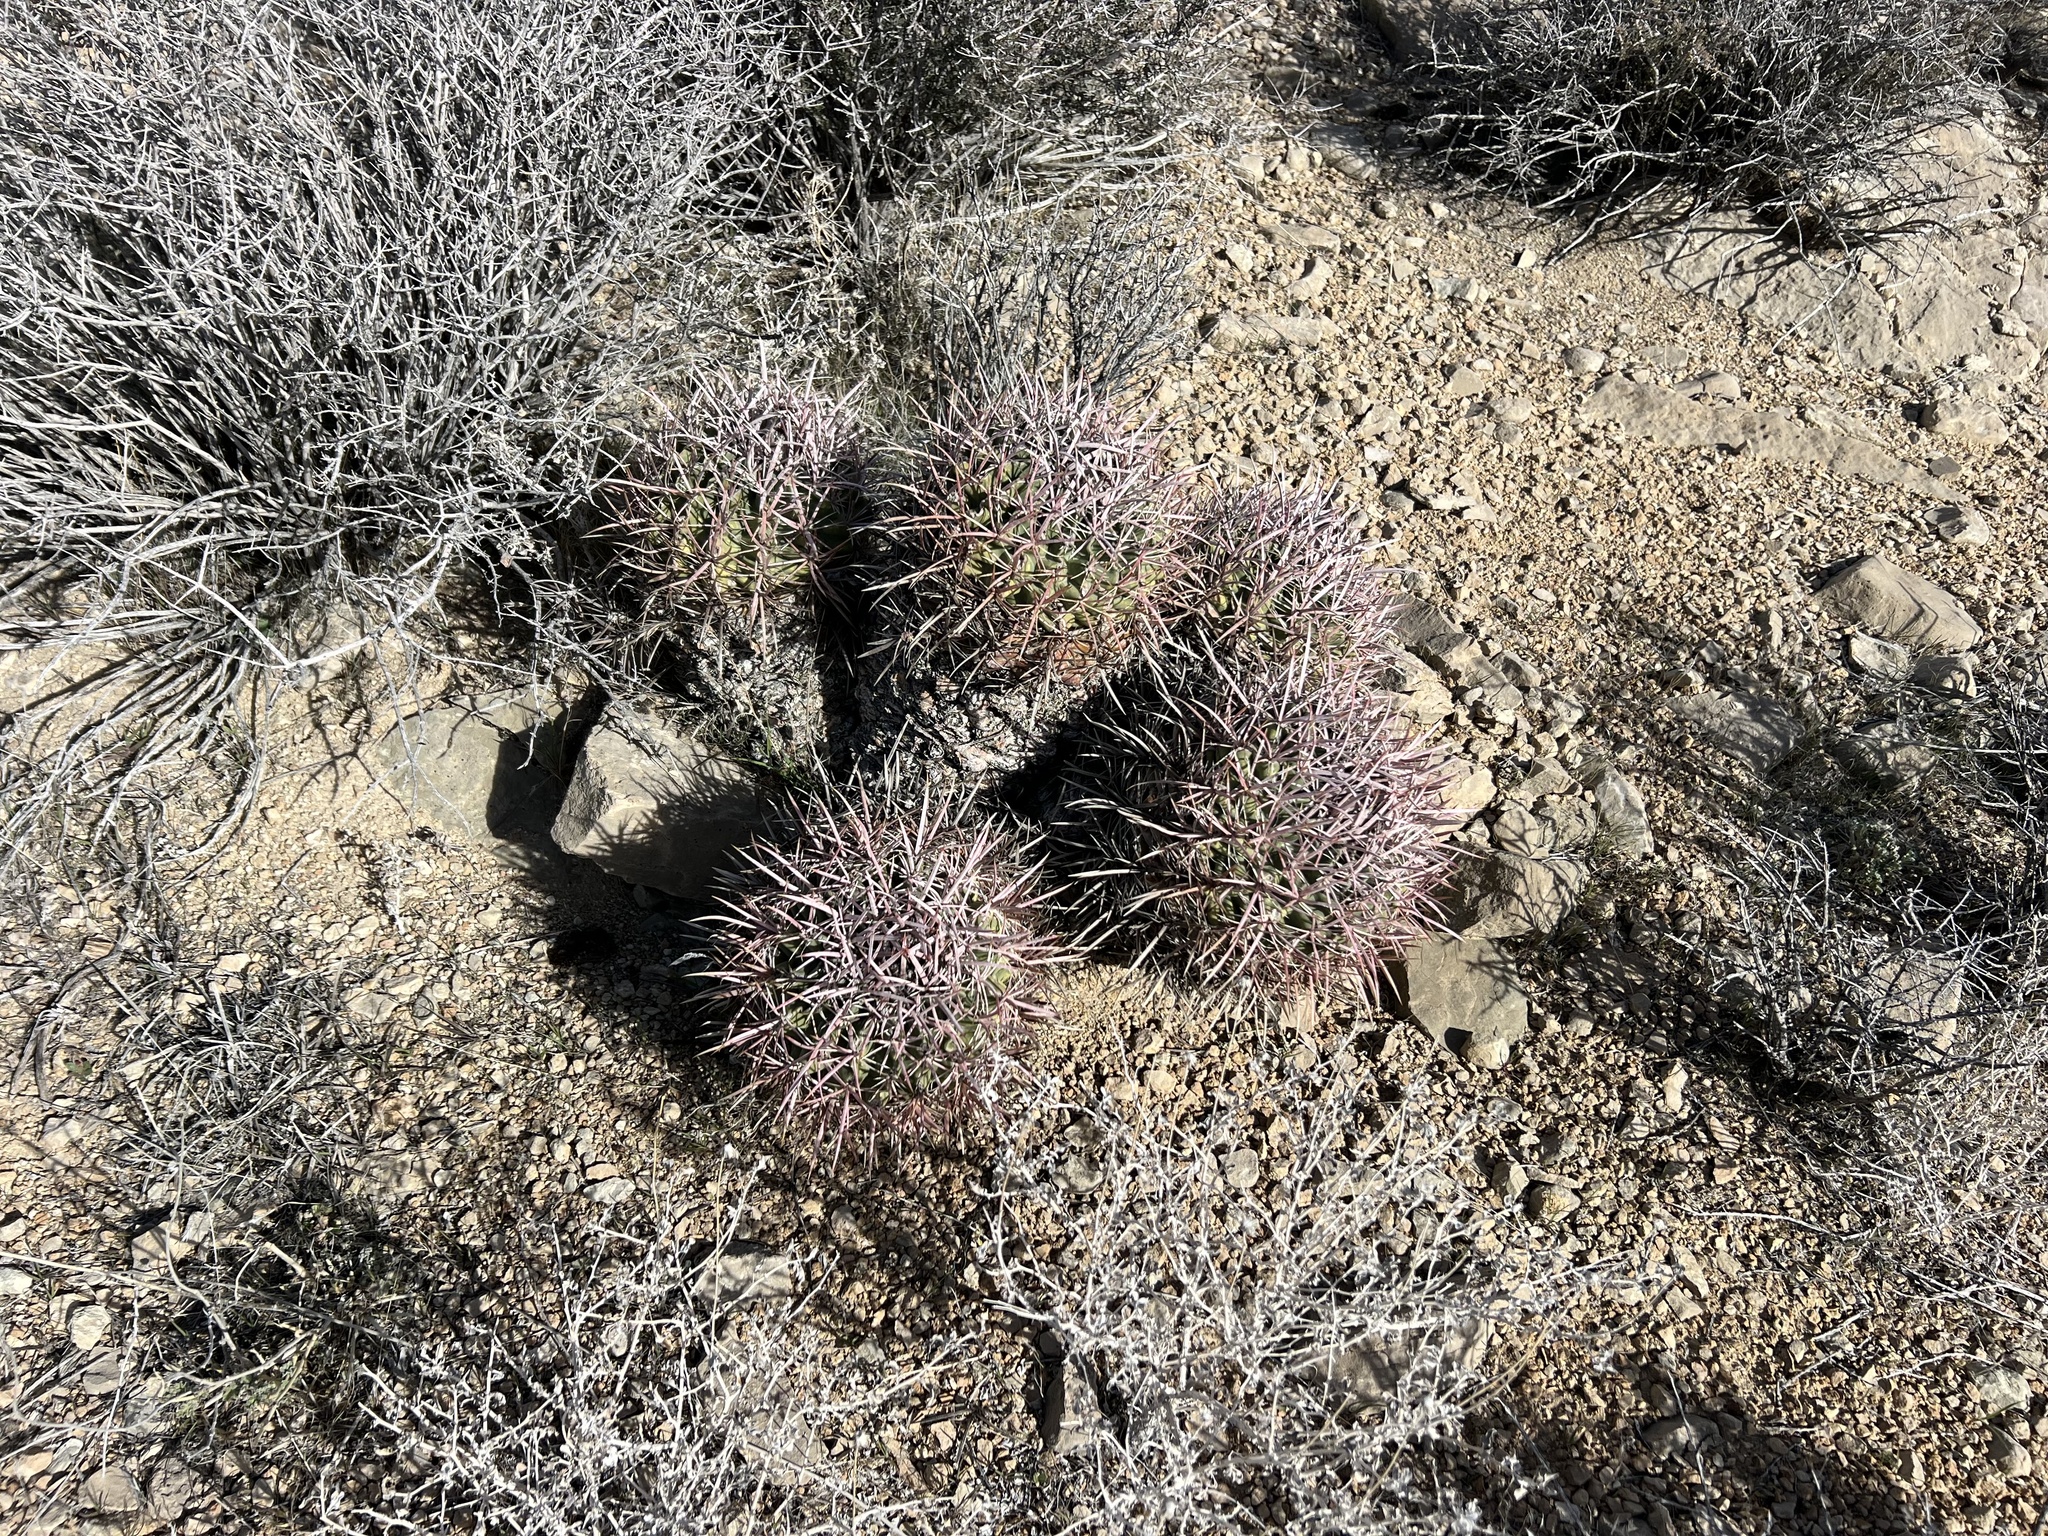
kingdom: Plantae
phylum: Tracheophyta
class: Magnoliopsida
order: Caryophyllales
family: Cactaceae
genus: Echinocactus
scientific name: Echinocactus polycephalus
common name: Cottontop cactus
